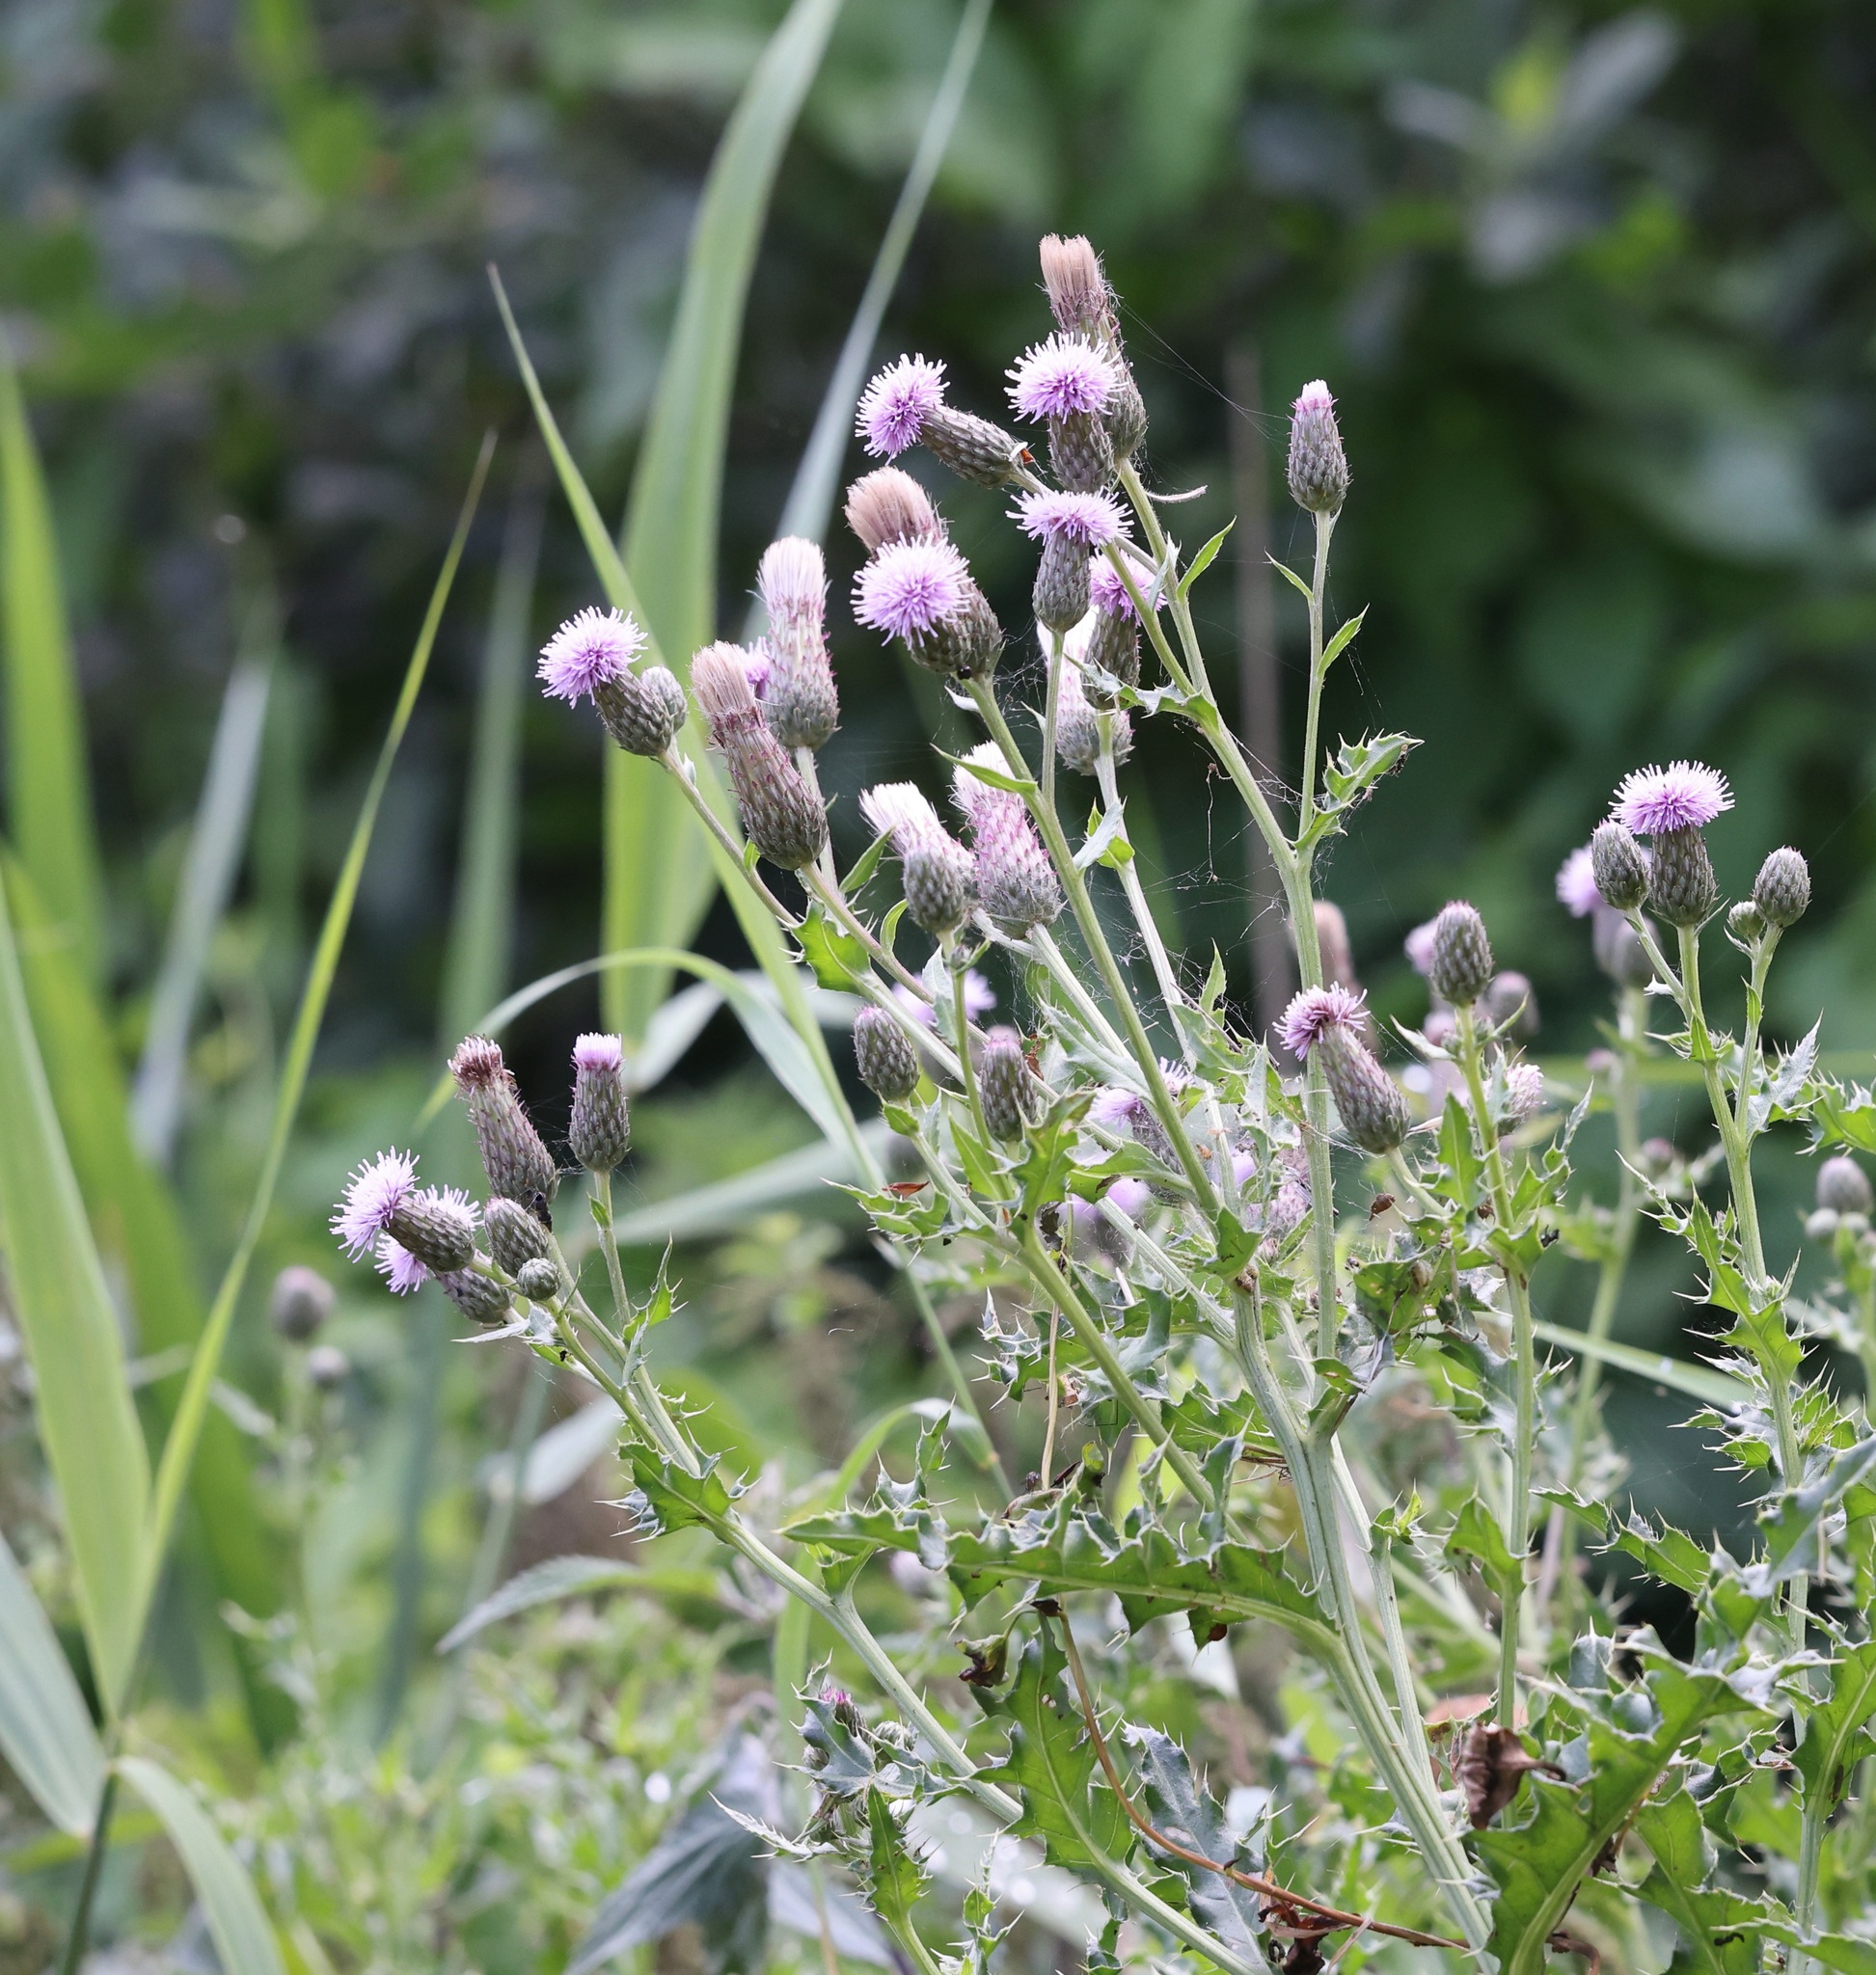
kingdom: Plantae
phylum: Tracheophyta
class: Magnoliopsida
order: Asterales
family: Asteraceae
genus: Cirsium
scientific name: Cirsium arvense
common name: Creeping thistle
